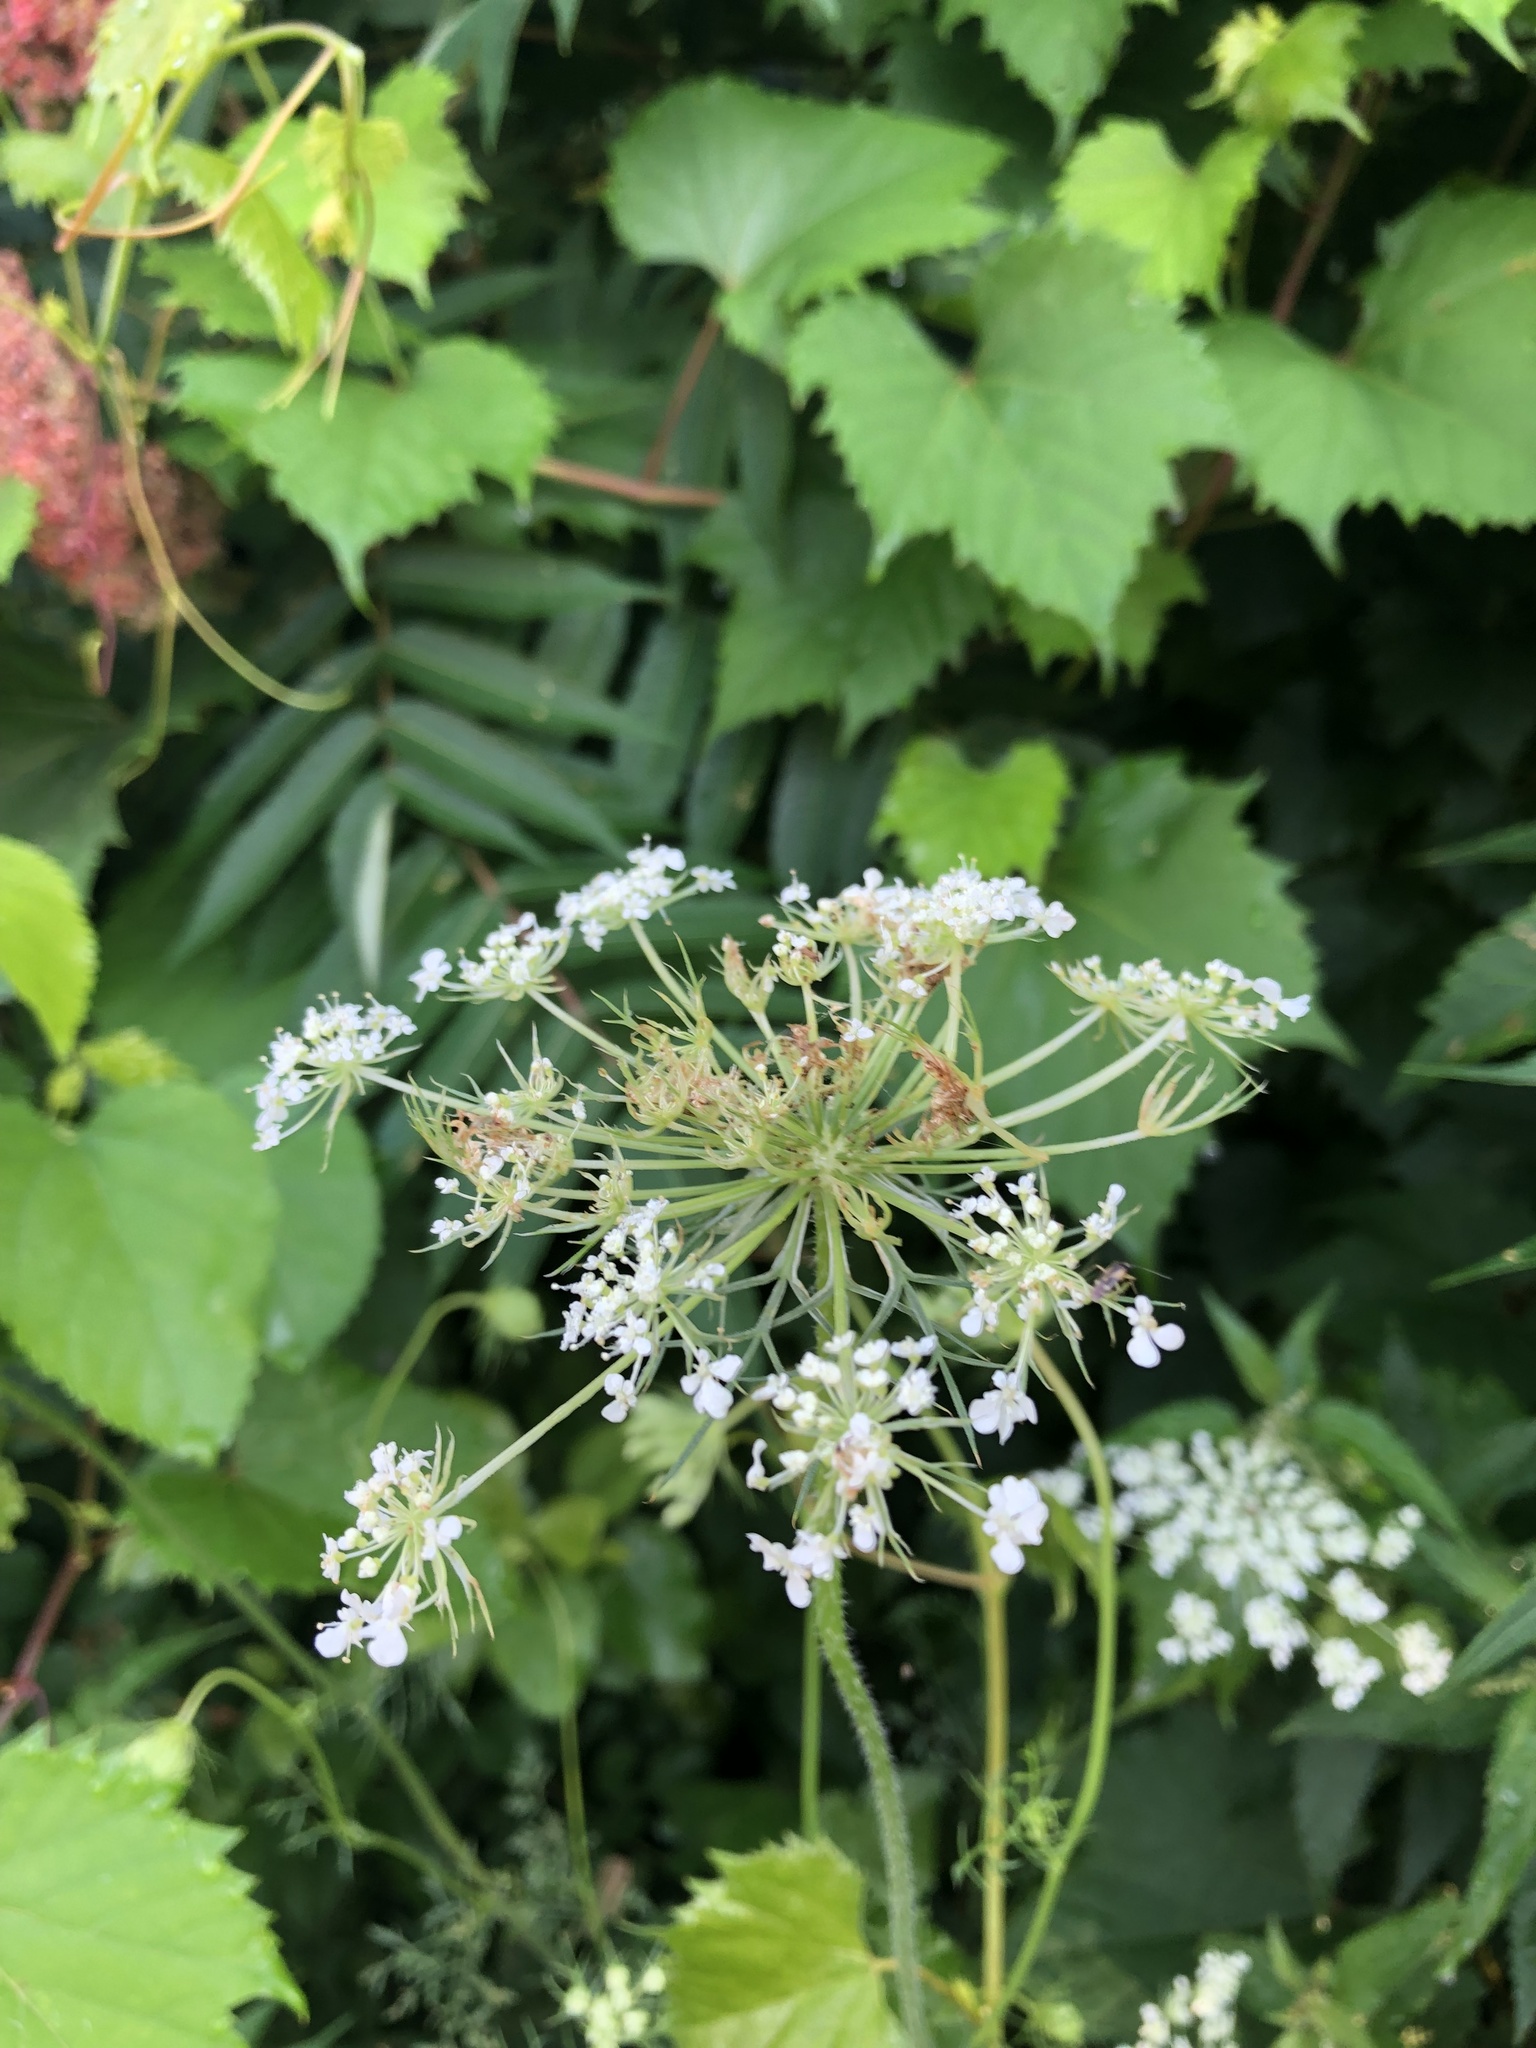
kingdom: Plantae
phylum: Tracheophyta
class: Magnoliopsida
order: Apiales
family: Apiaceae
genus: Daucus
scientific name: Daucus carota
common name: Wild carrot
